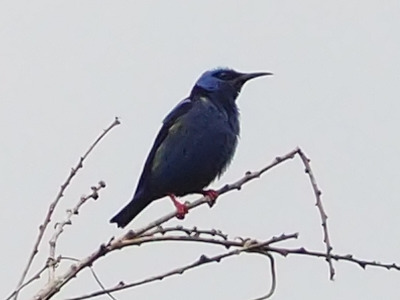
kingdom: Animalia
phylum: Chordata
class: Aves
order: Passeriformes
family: Thraupidae
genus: Cyanerpes
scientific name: Cyanerpes cyaneus
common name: Red-legged honeycreeper
